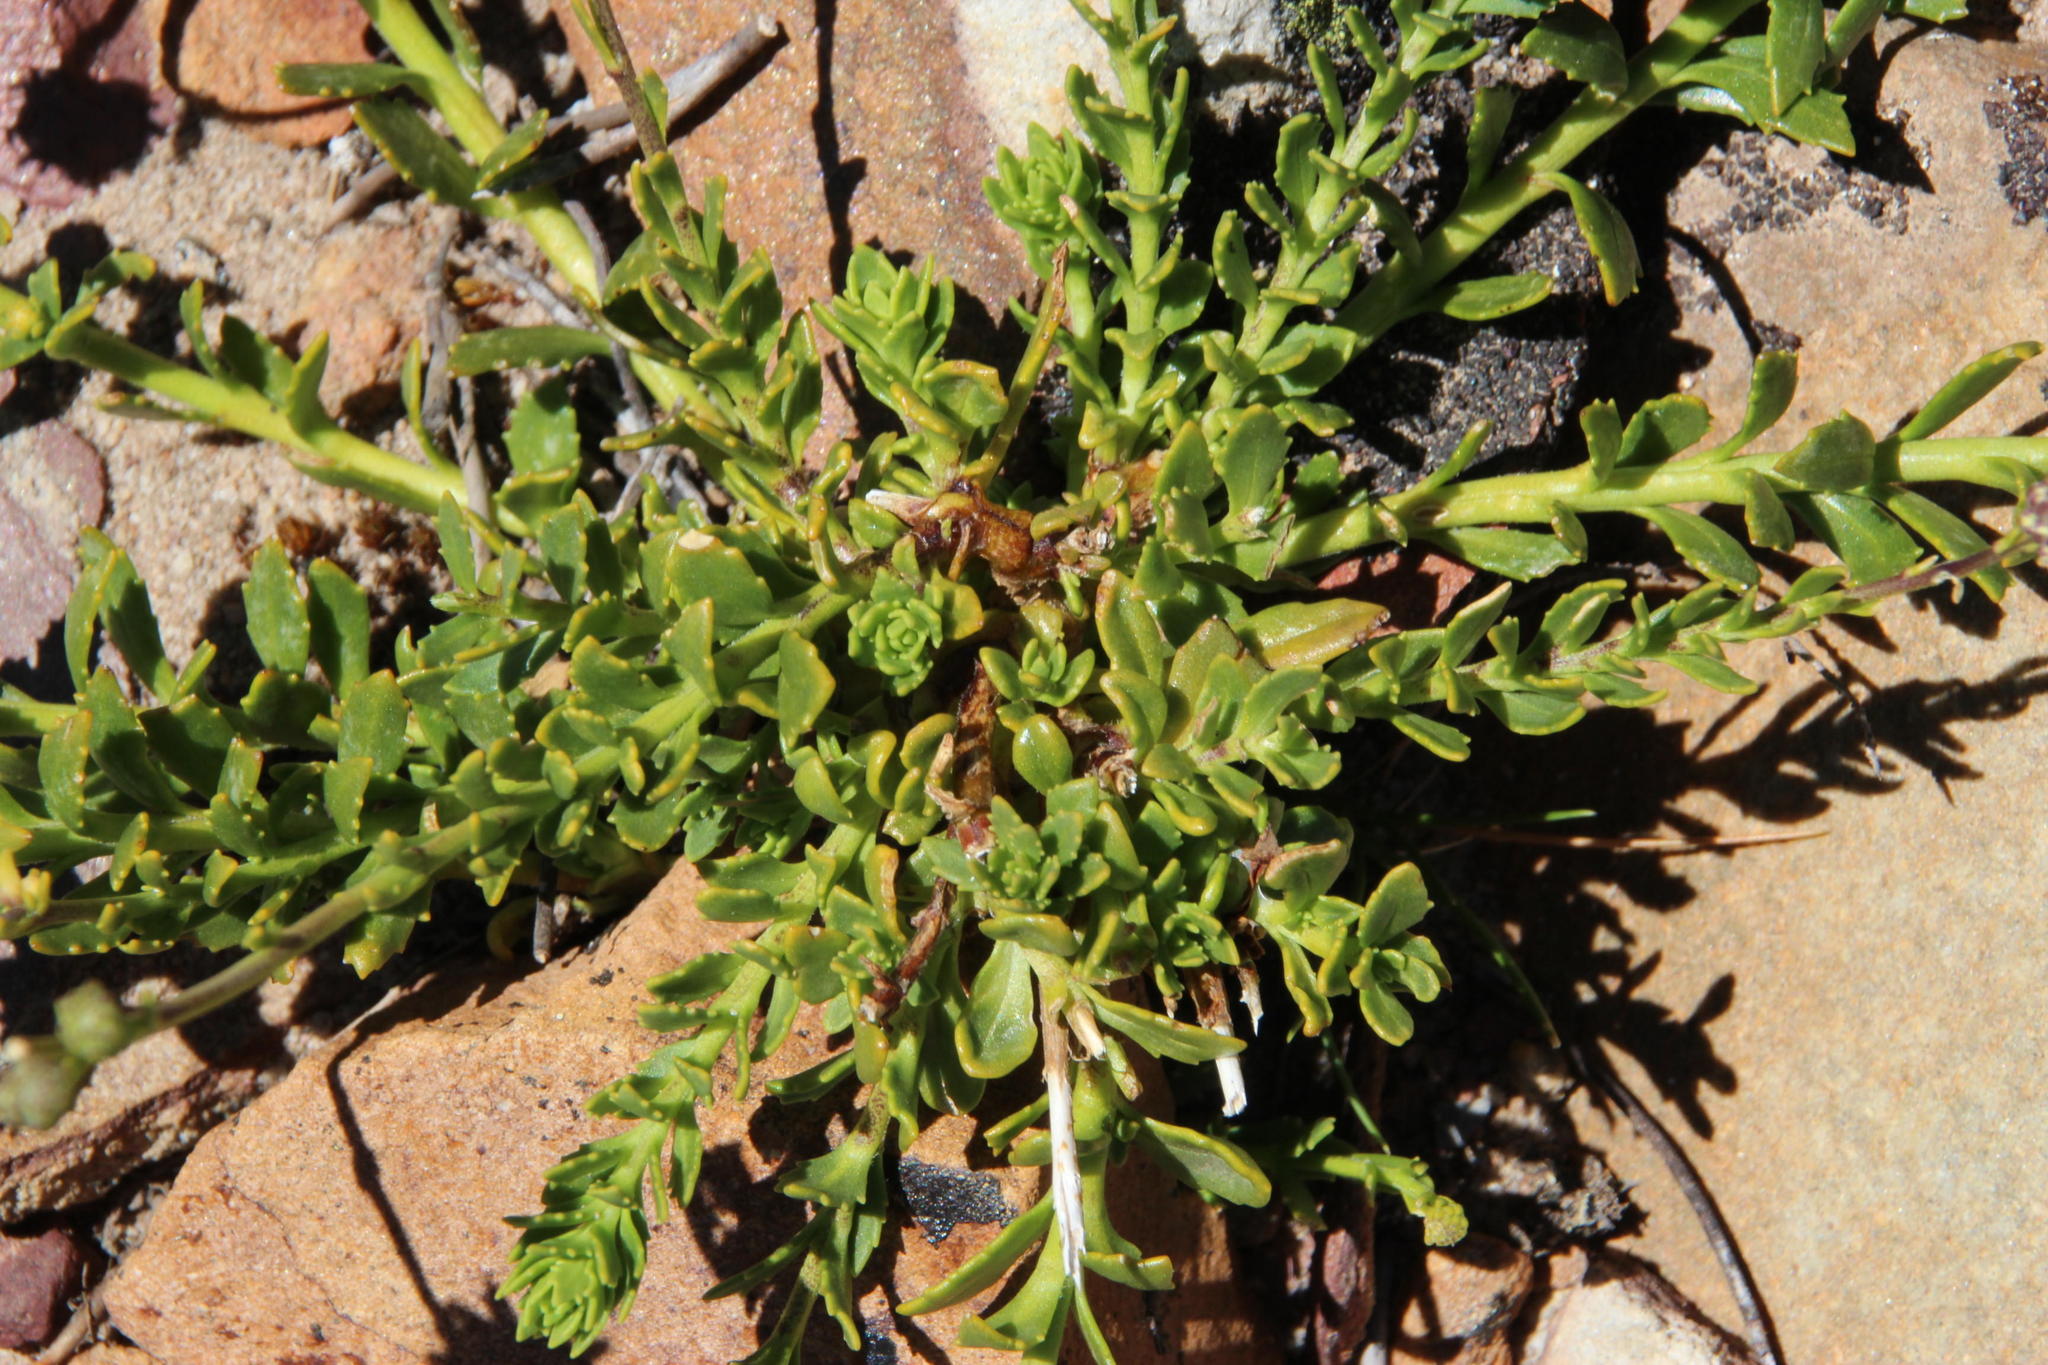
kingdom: Plantae
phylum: Tracheophyta
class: Magnoliopsida
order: Lamiales
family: Scrophulariaceae
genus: Pseudoselago
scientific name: Pseudoselago similis
